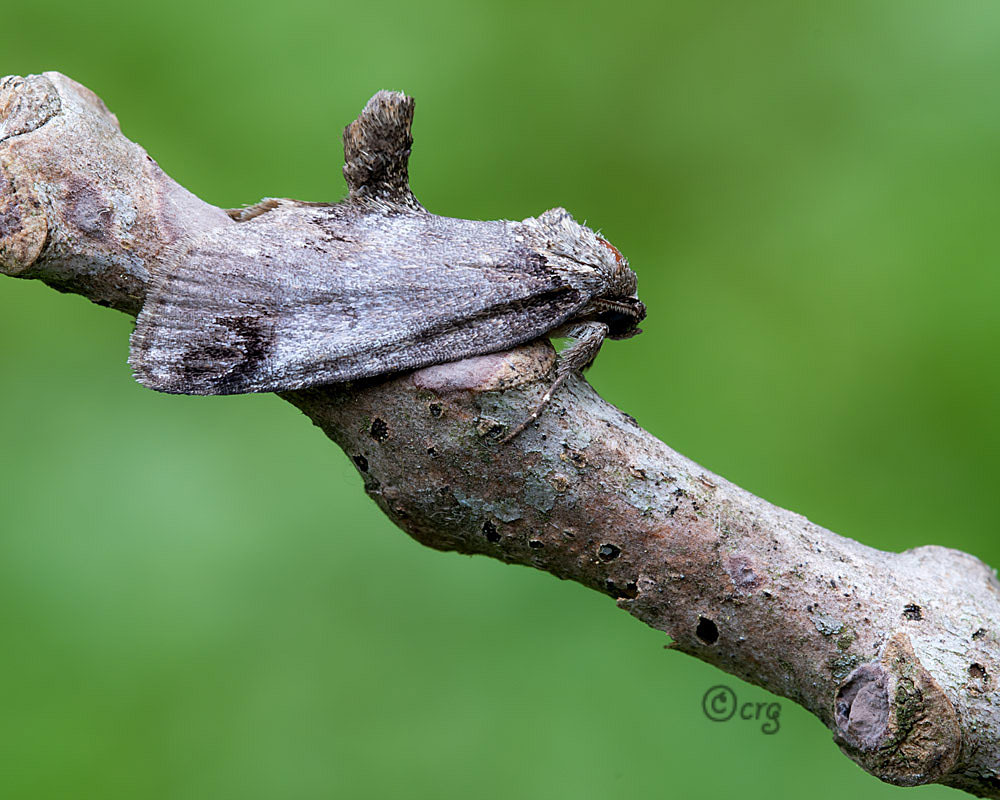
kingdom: Animalia
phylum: Arthropoda
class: Insecta
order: Lepidoptera
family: Nolidae
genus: Baileya
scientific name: Baileya dormitans
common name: Sleeping baileya moth
